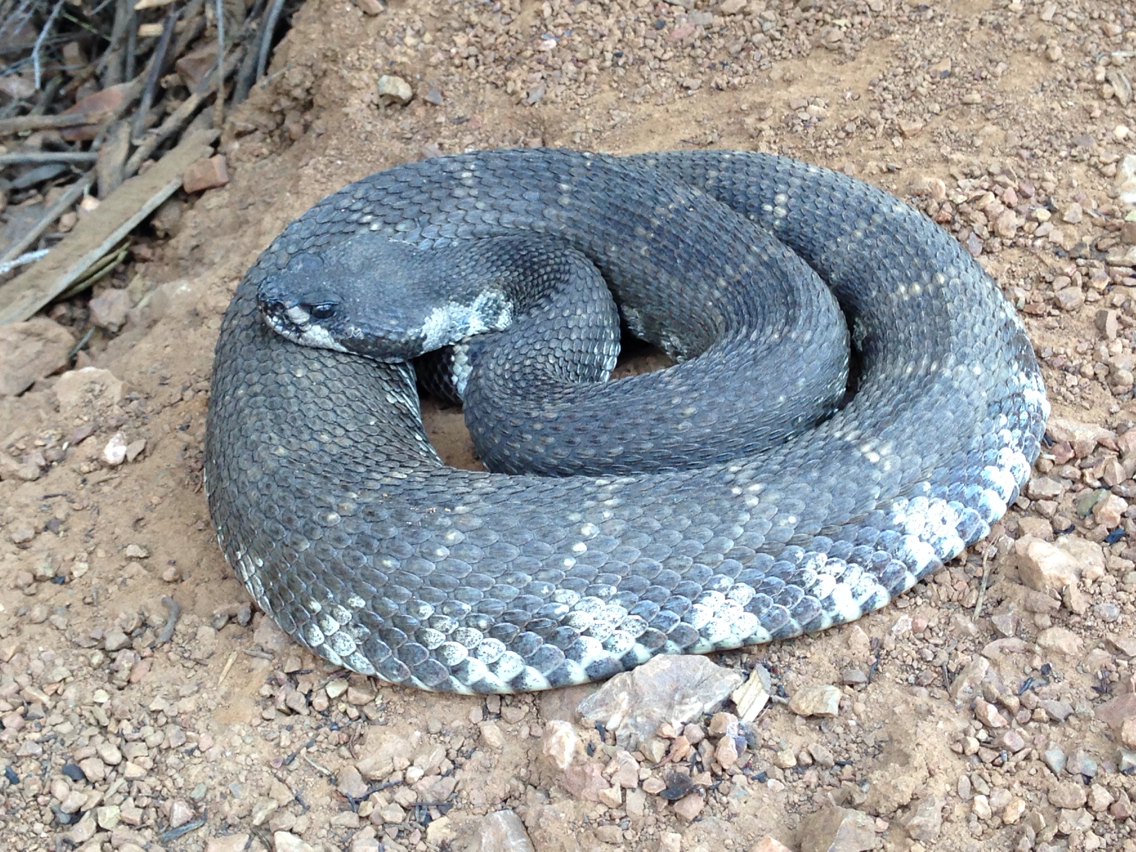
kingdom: Animalia
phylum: Chordata
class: Squamata
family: Viperidae
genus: Crotalus
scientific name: Crotalus oreganus
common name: Abyssus
